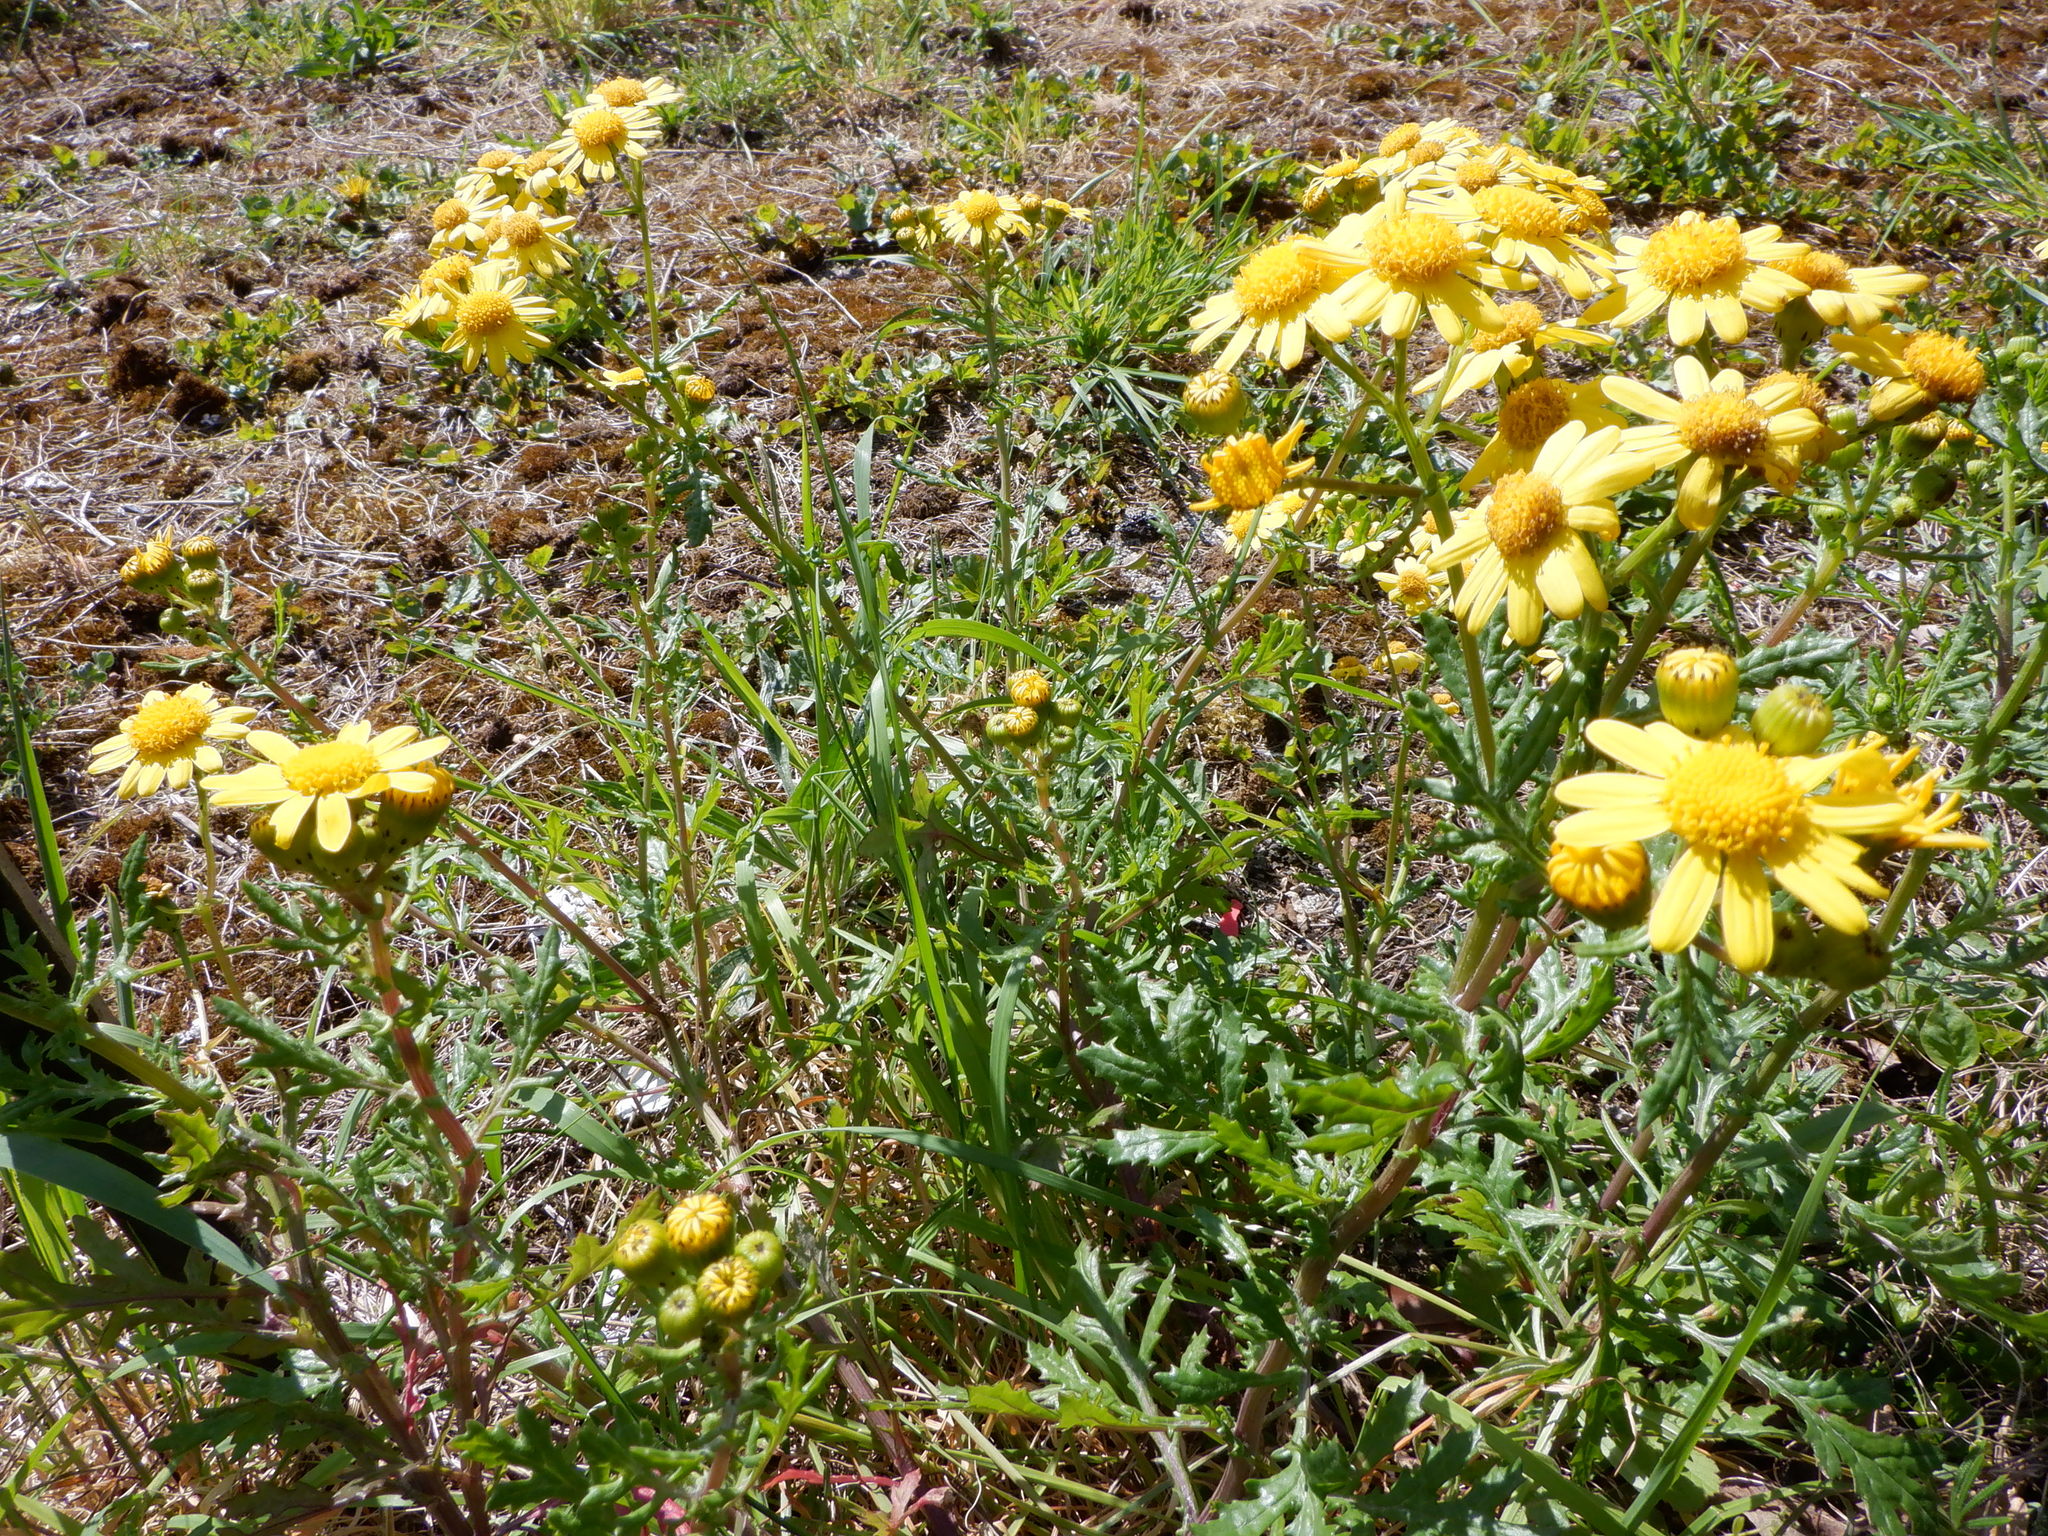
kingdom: Plantae
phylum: Tracheophyta
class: Magnoliopsida
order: Asterales
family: Asteraceae
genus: Senecio
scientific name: Senecio squalidus
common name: Oxford ragwort
